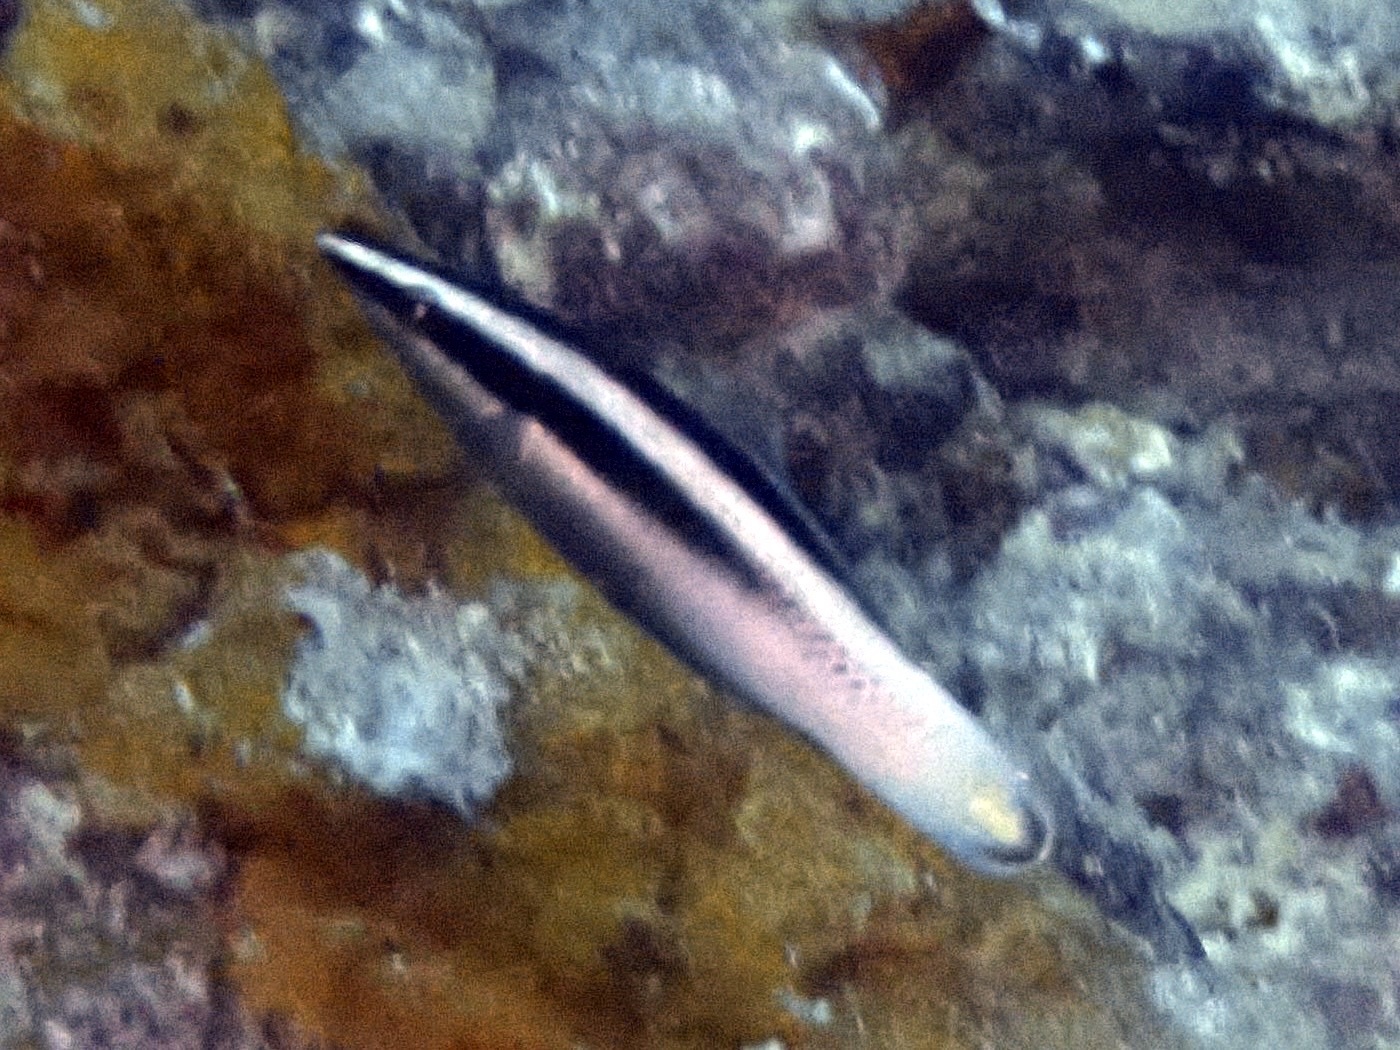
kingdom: Animalia
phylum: Chordata
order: Perciformes
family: Labridae
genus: Labroides
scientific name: Labroides bicolor
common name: Bicolor cleaner wrasse
